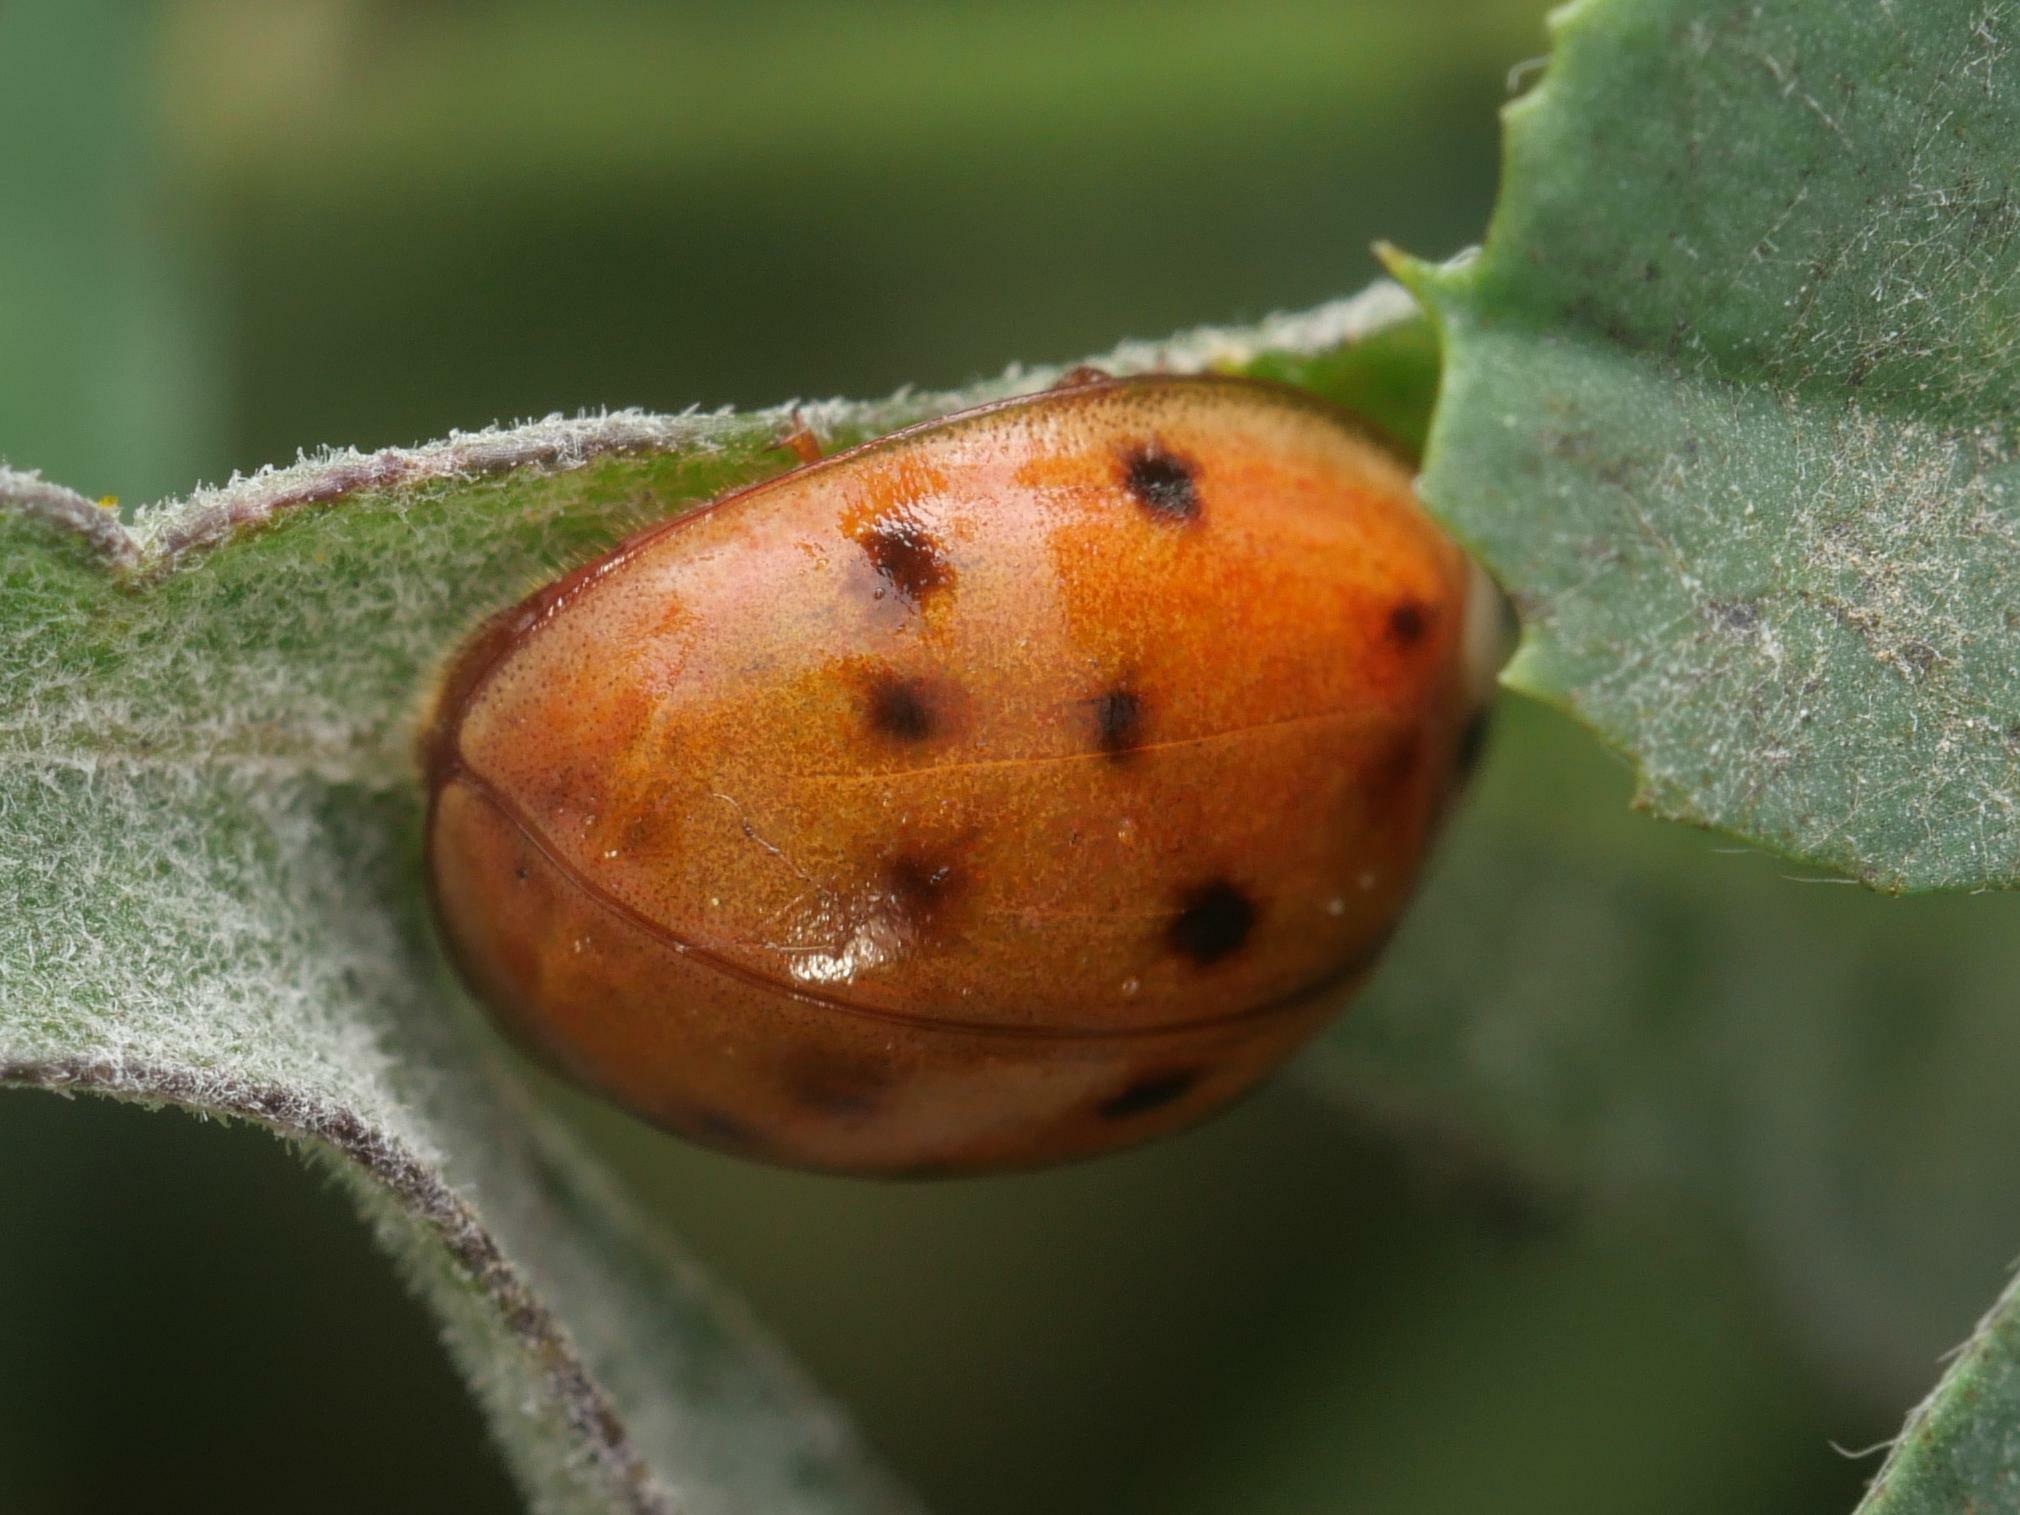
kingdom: Animalia
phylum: Arthropoda
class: Insecta
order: Coleoptera
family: Coccinellidae
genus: Harmonia
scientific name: Harmonia axyridis
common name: Harlequin ladybird
